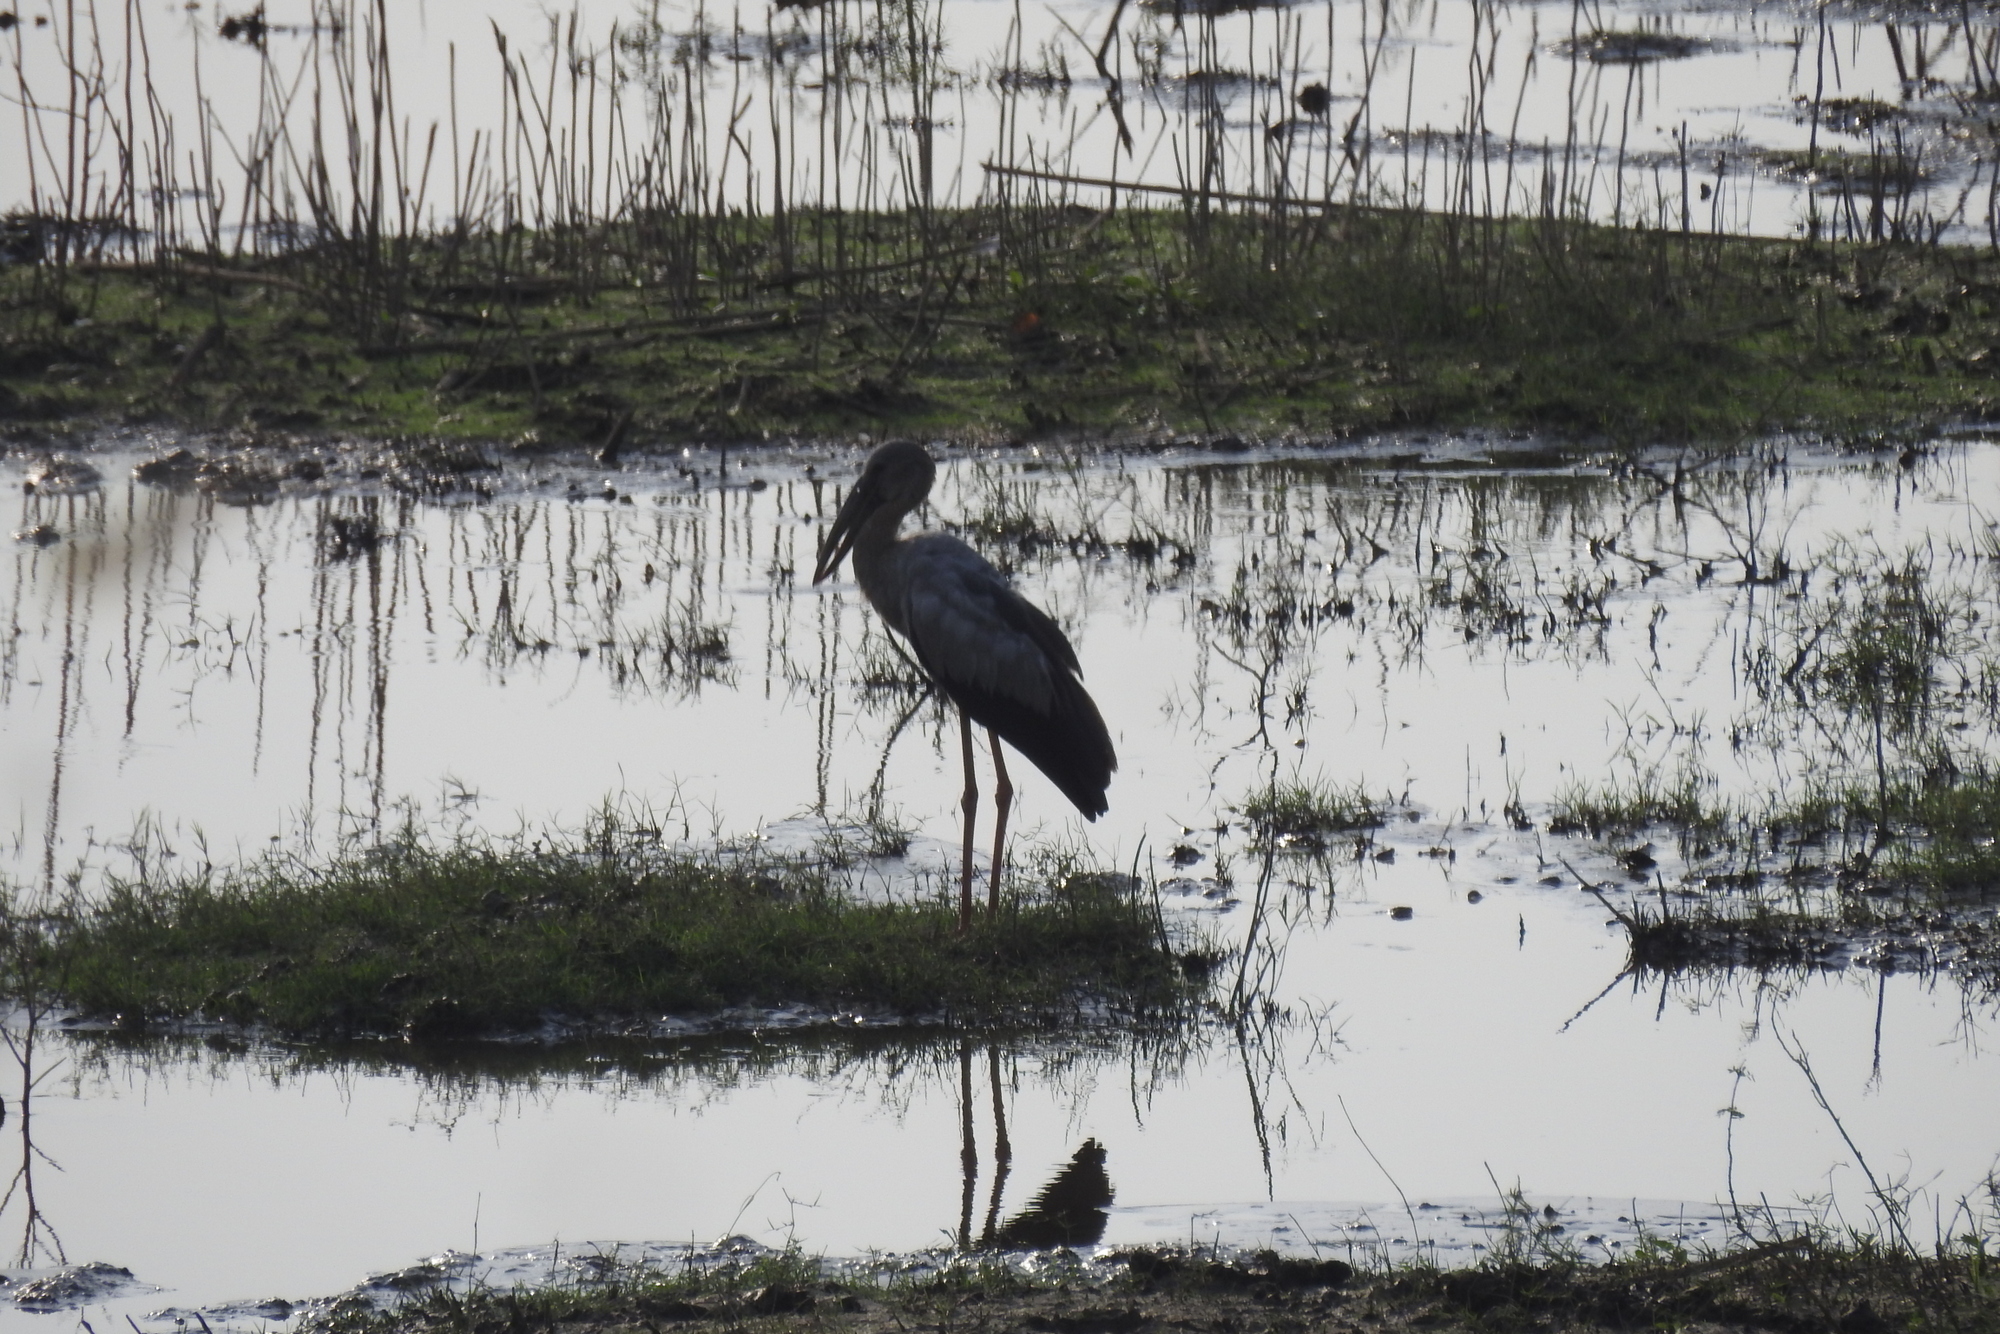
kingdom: Animalia
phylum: Chordata
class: Aves
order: Ciconiiformes
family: Ciconiidae
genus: Anastomus
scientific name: Anastomus oscitans
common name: Asian openbill
